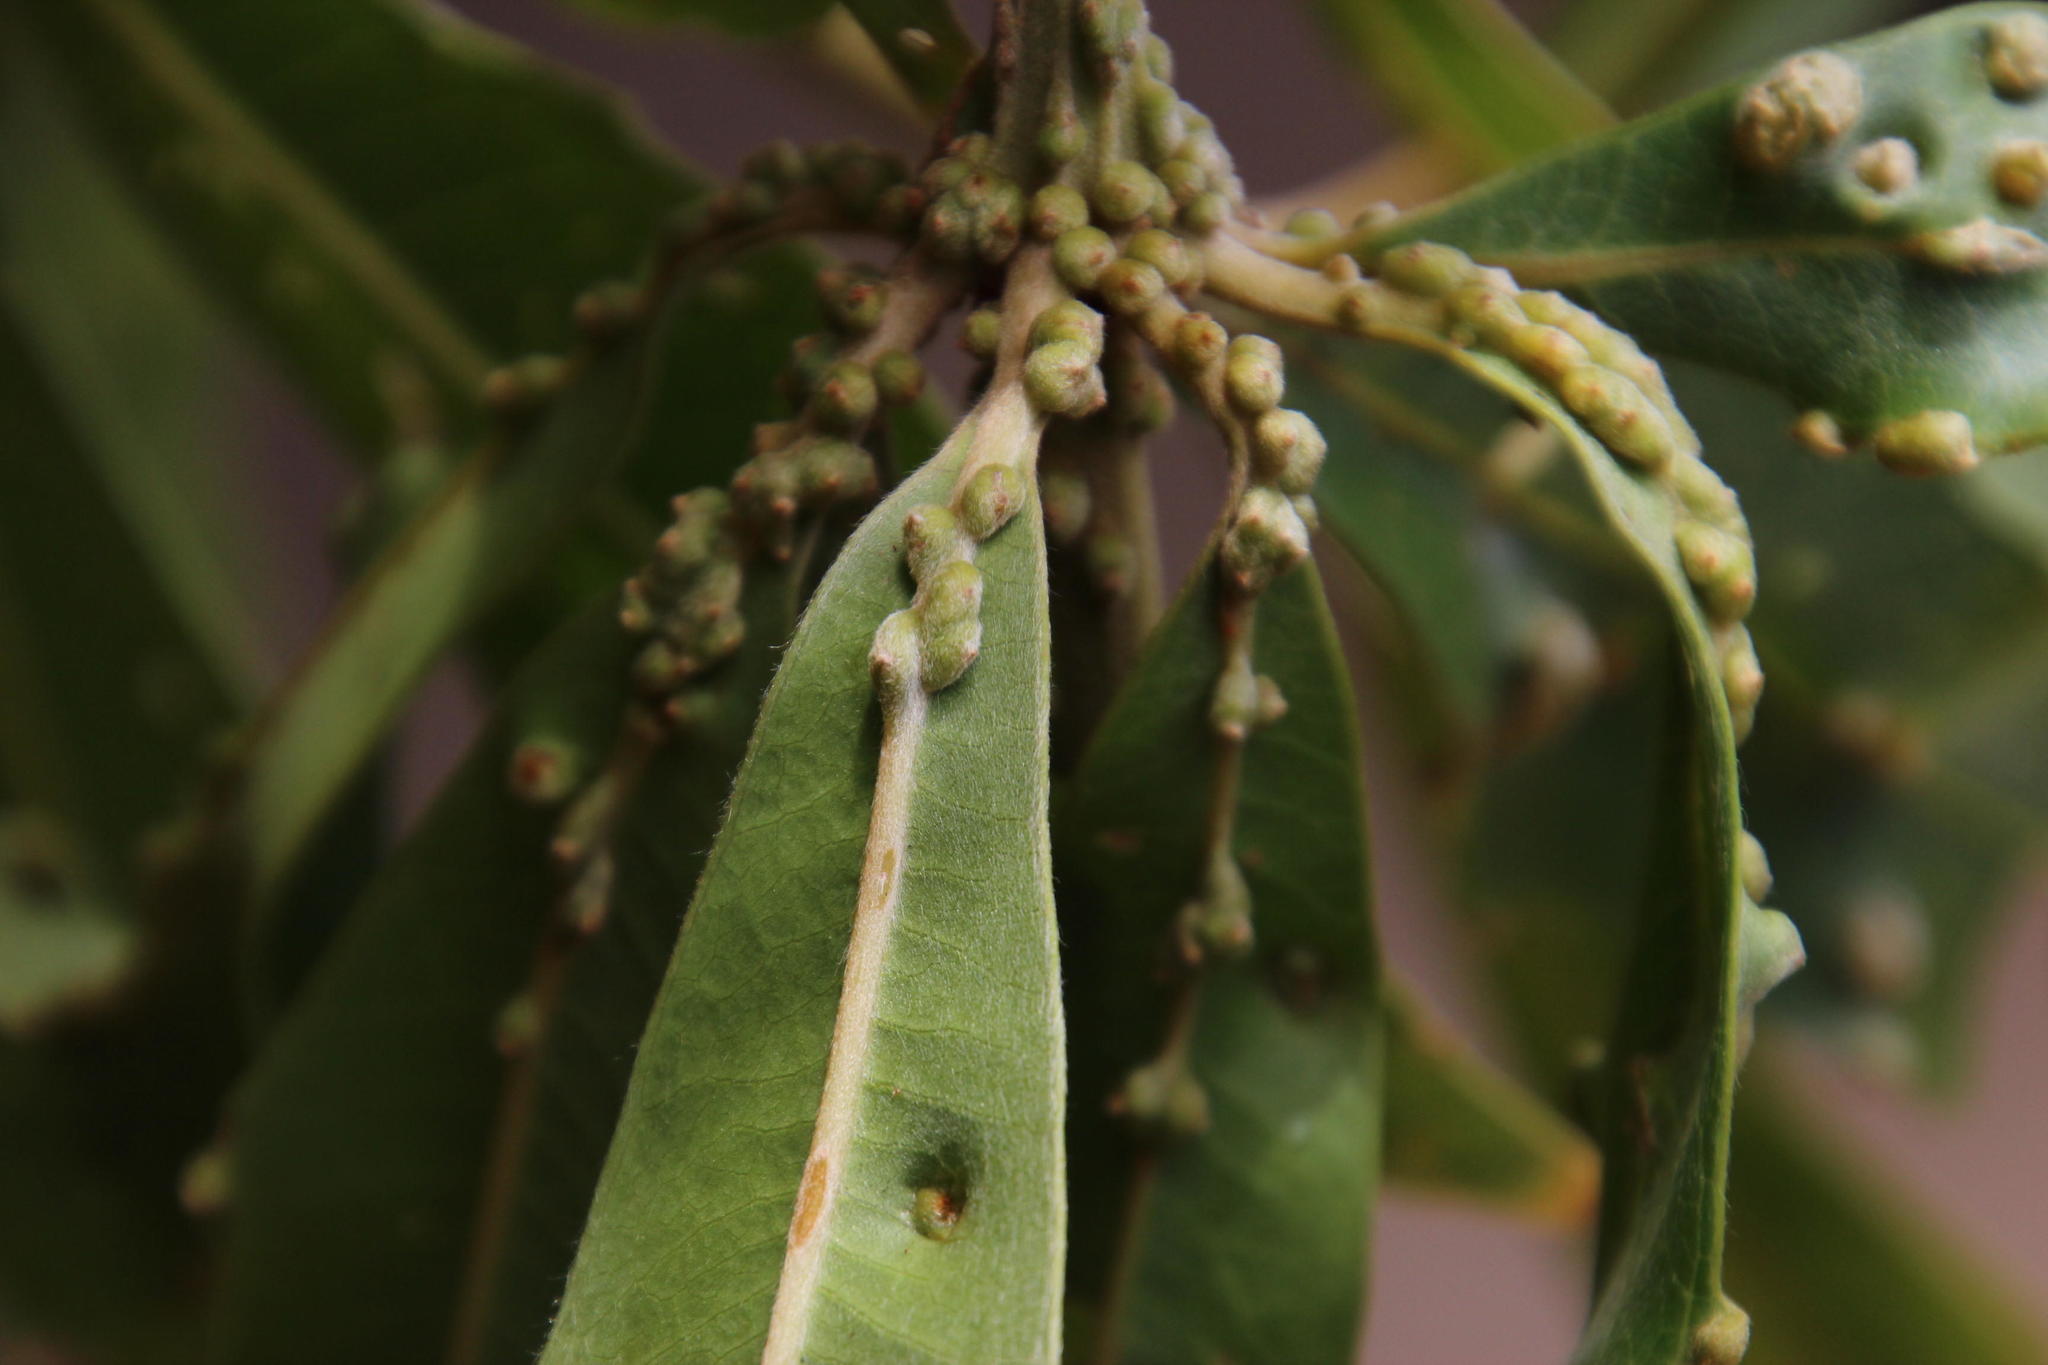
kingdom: Plantae
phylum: Tracheophyta
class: Magnoliopsida
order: Proteales
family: Proteaceae
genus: Brabejum
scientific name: Brabejum stellatifolium
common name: Wild almond
